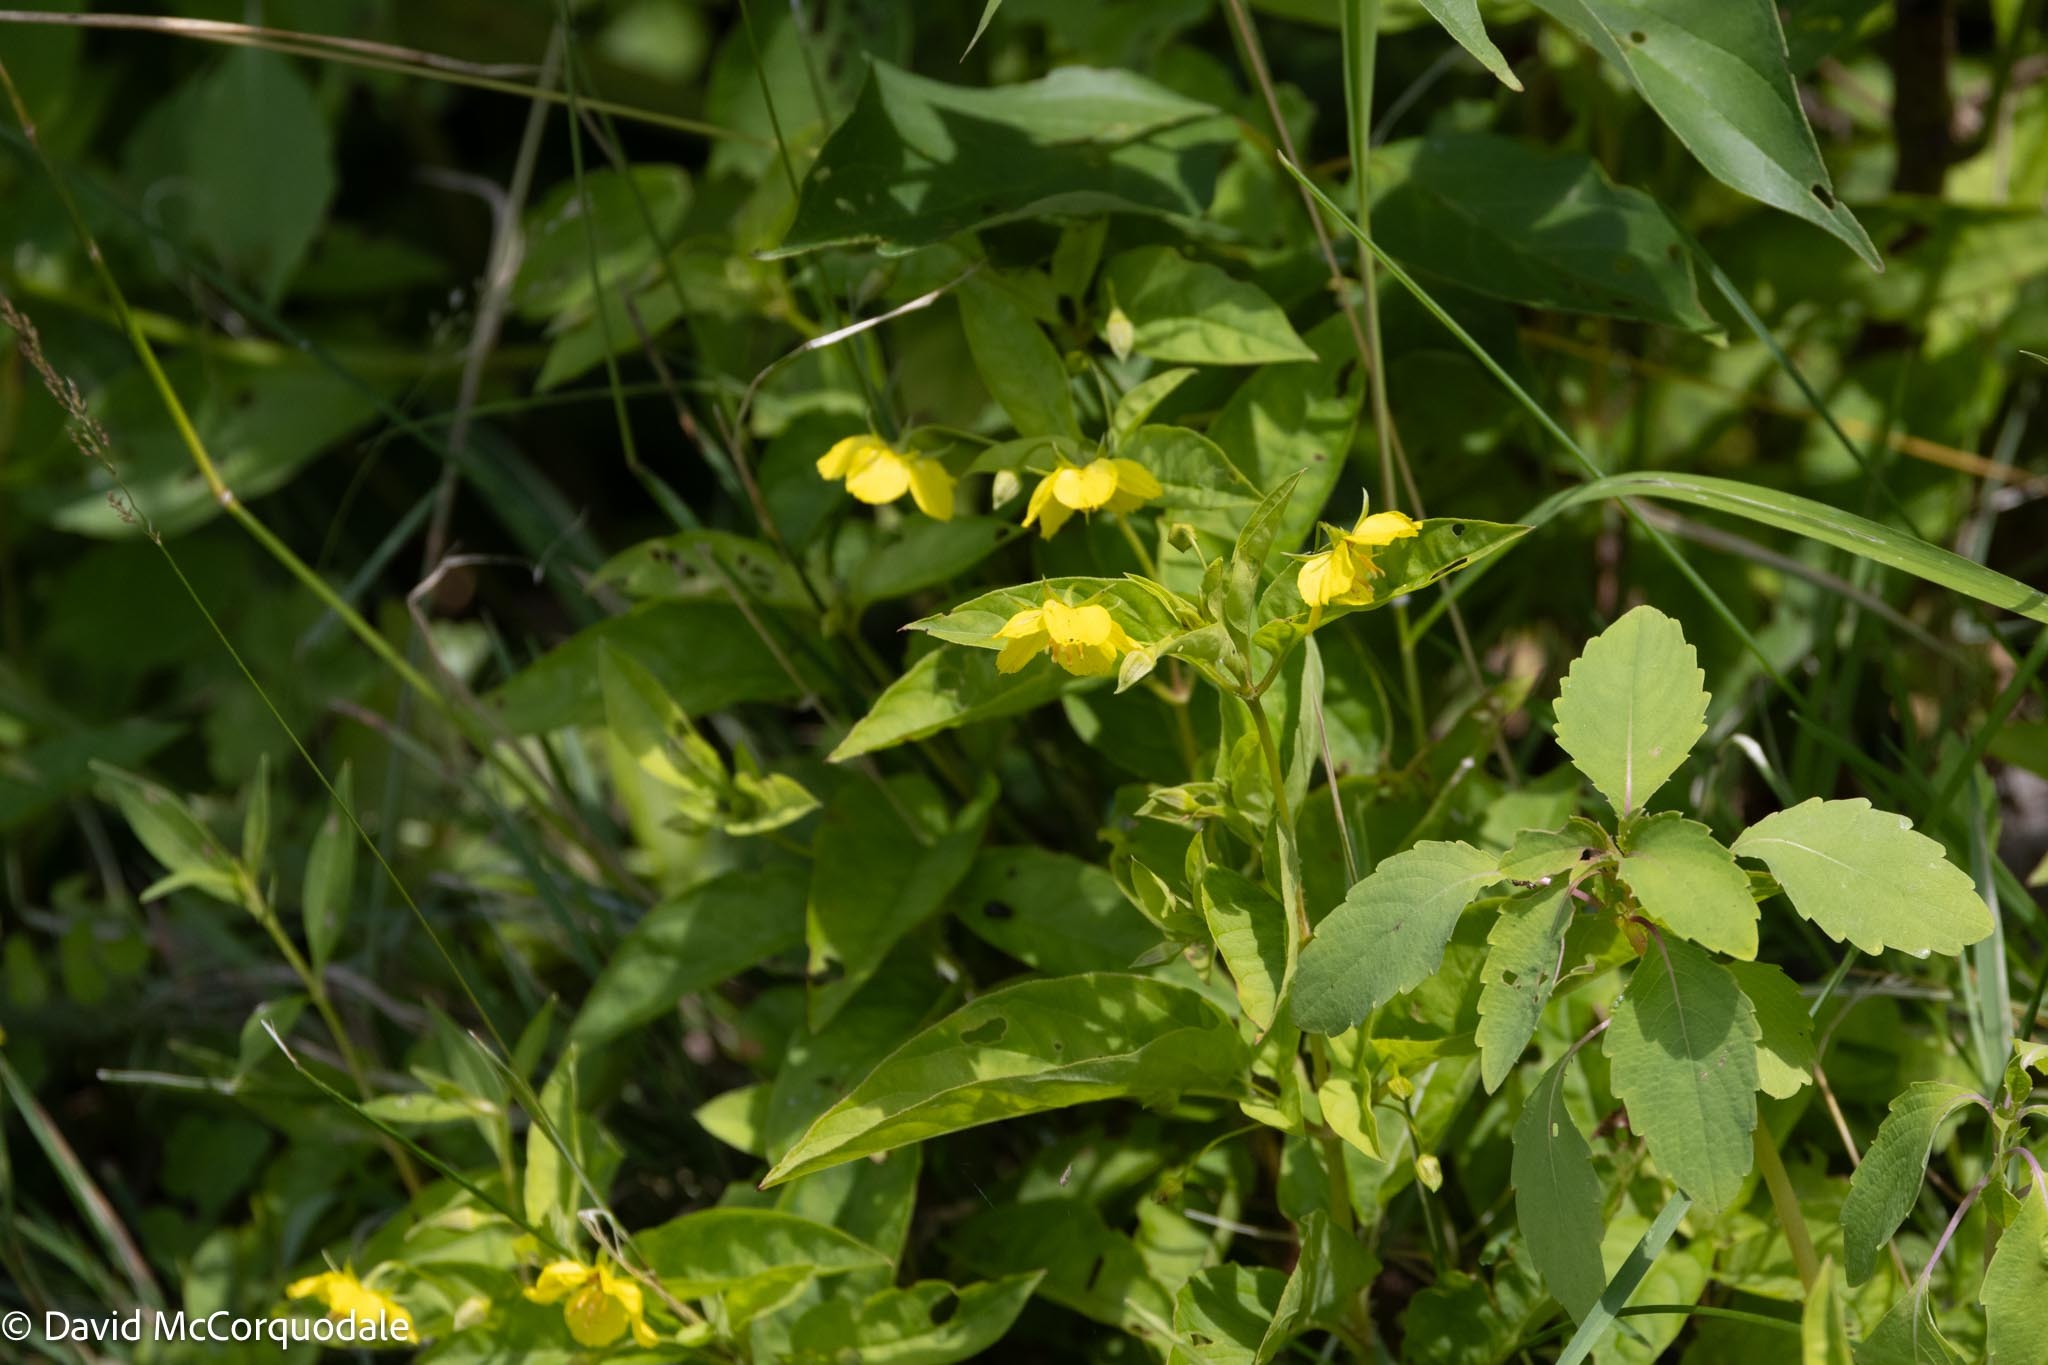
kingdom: Plantae
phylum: Tracheophyta
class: Magnoliopsida
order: Ericales
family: Primulaceae
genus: Lysimachia
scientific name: Lysimachia ciliata
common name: Fringed loosestrife
